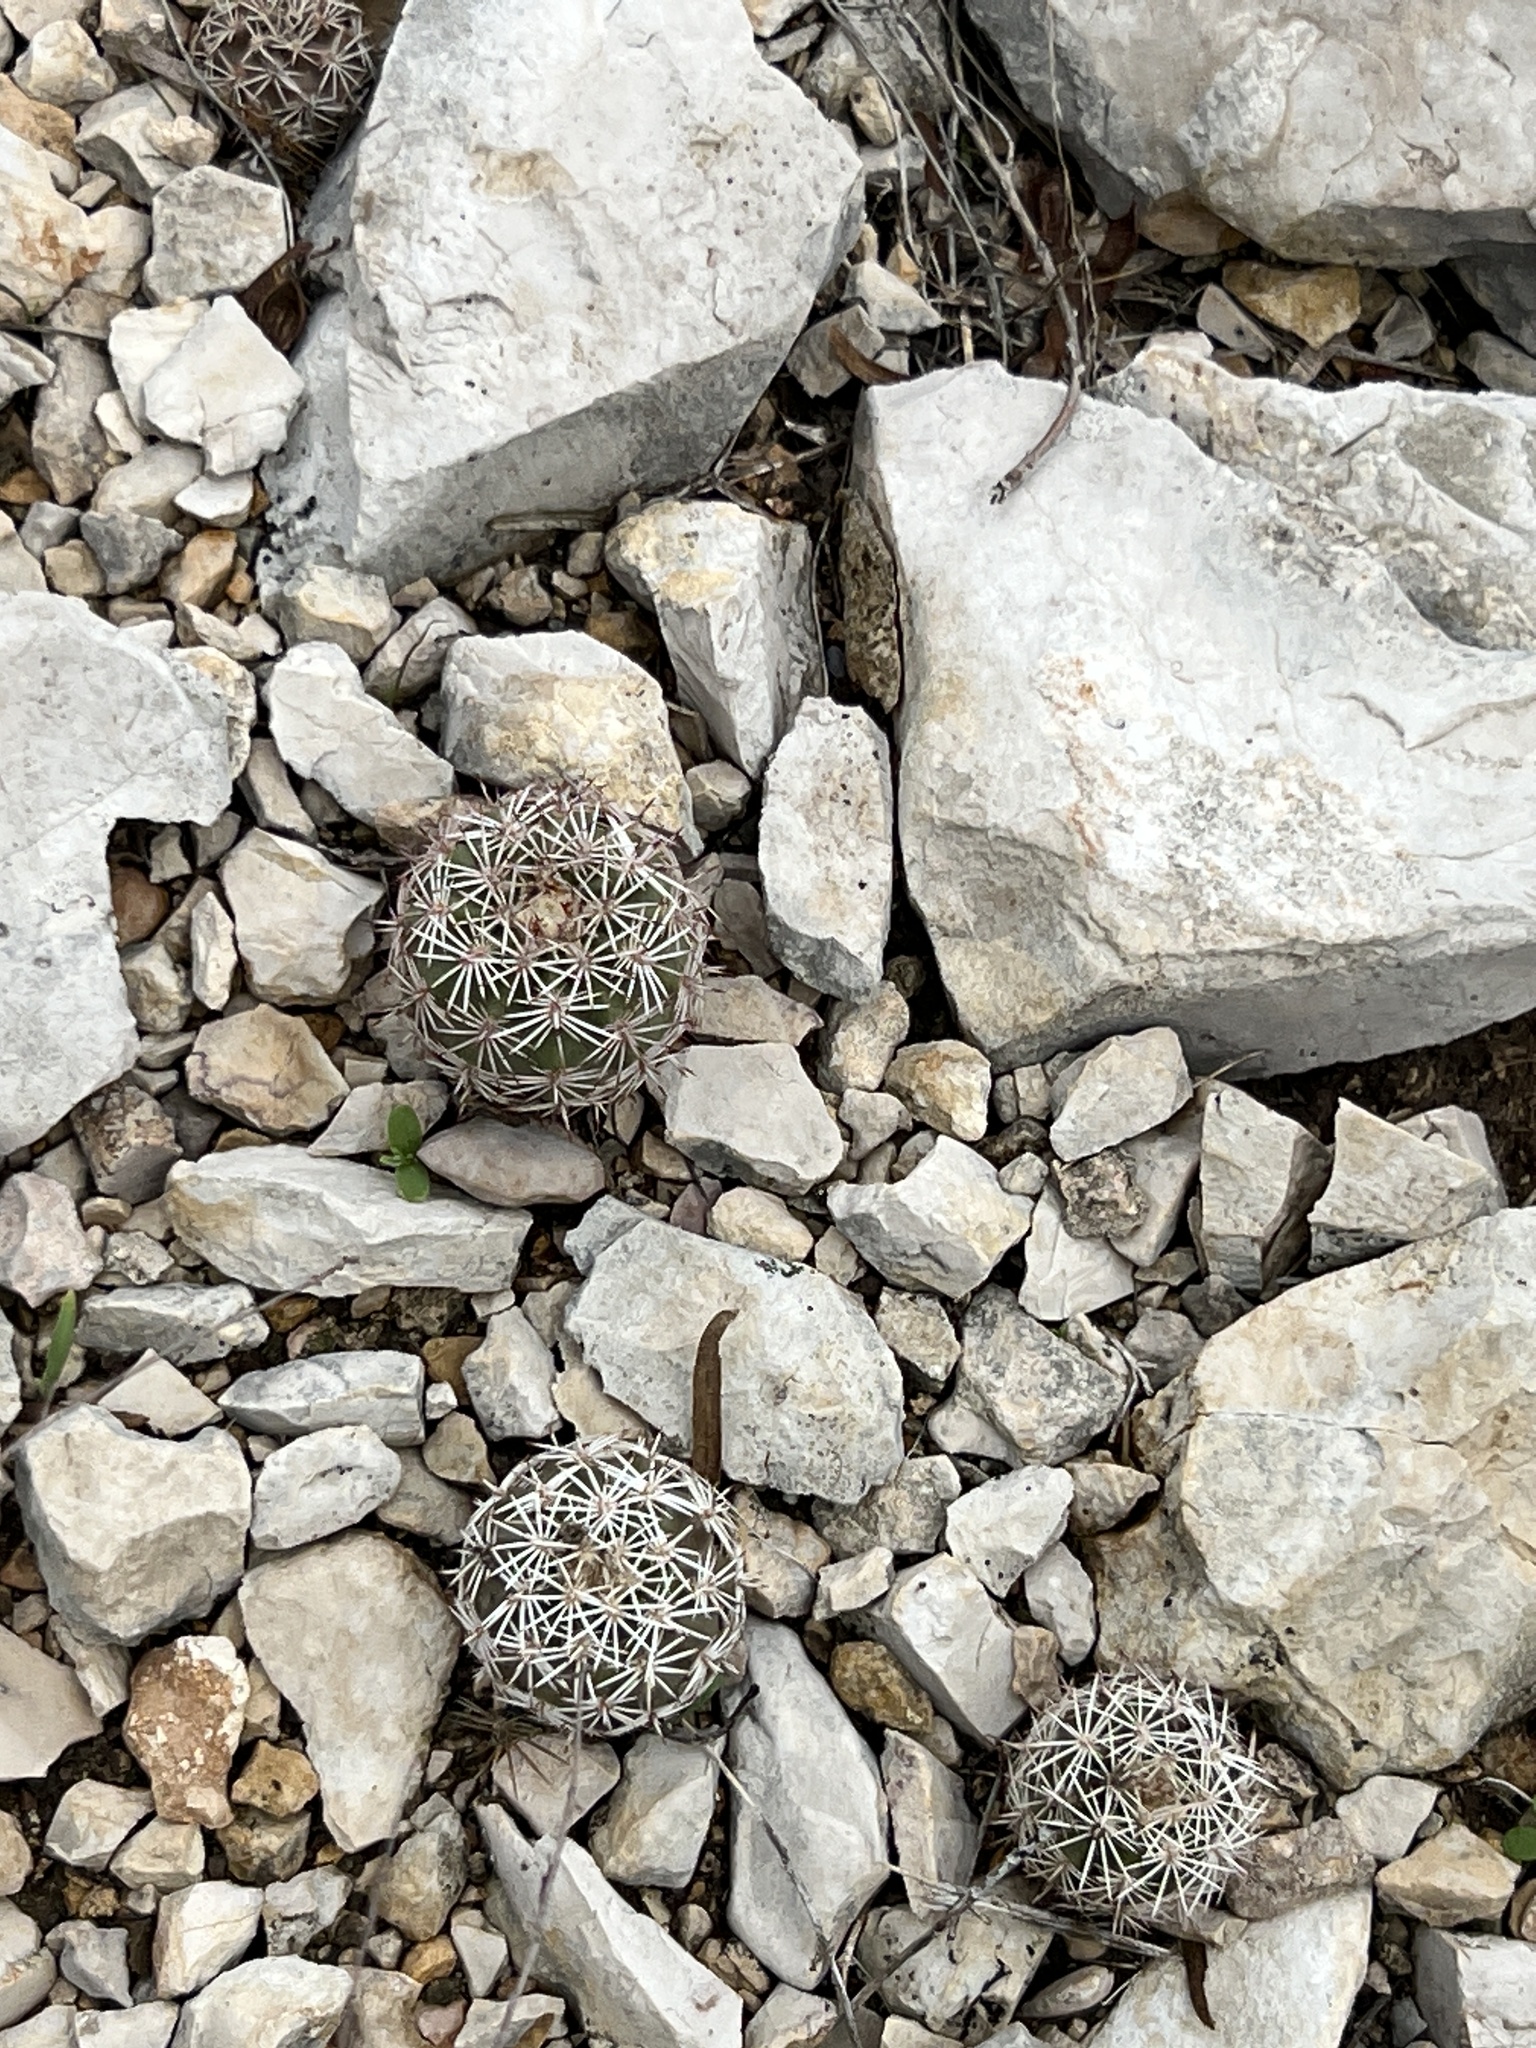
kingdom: Plantae
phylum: Tracheophyta
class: Magnoliopsida
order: Caryophyllales
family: Cactaceae
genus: Coryphantha
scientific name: Coryphantha echinus
